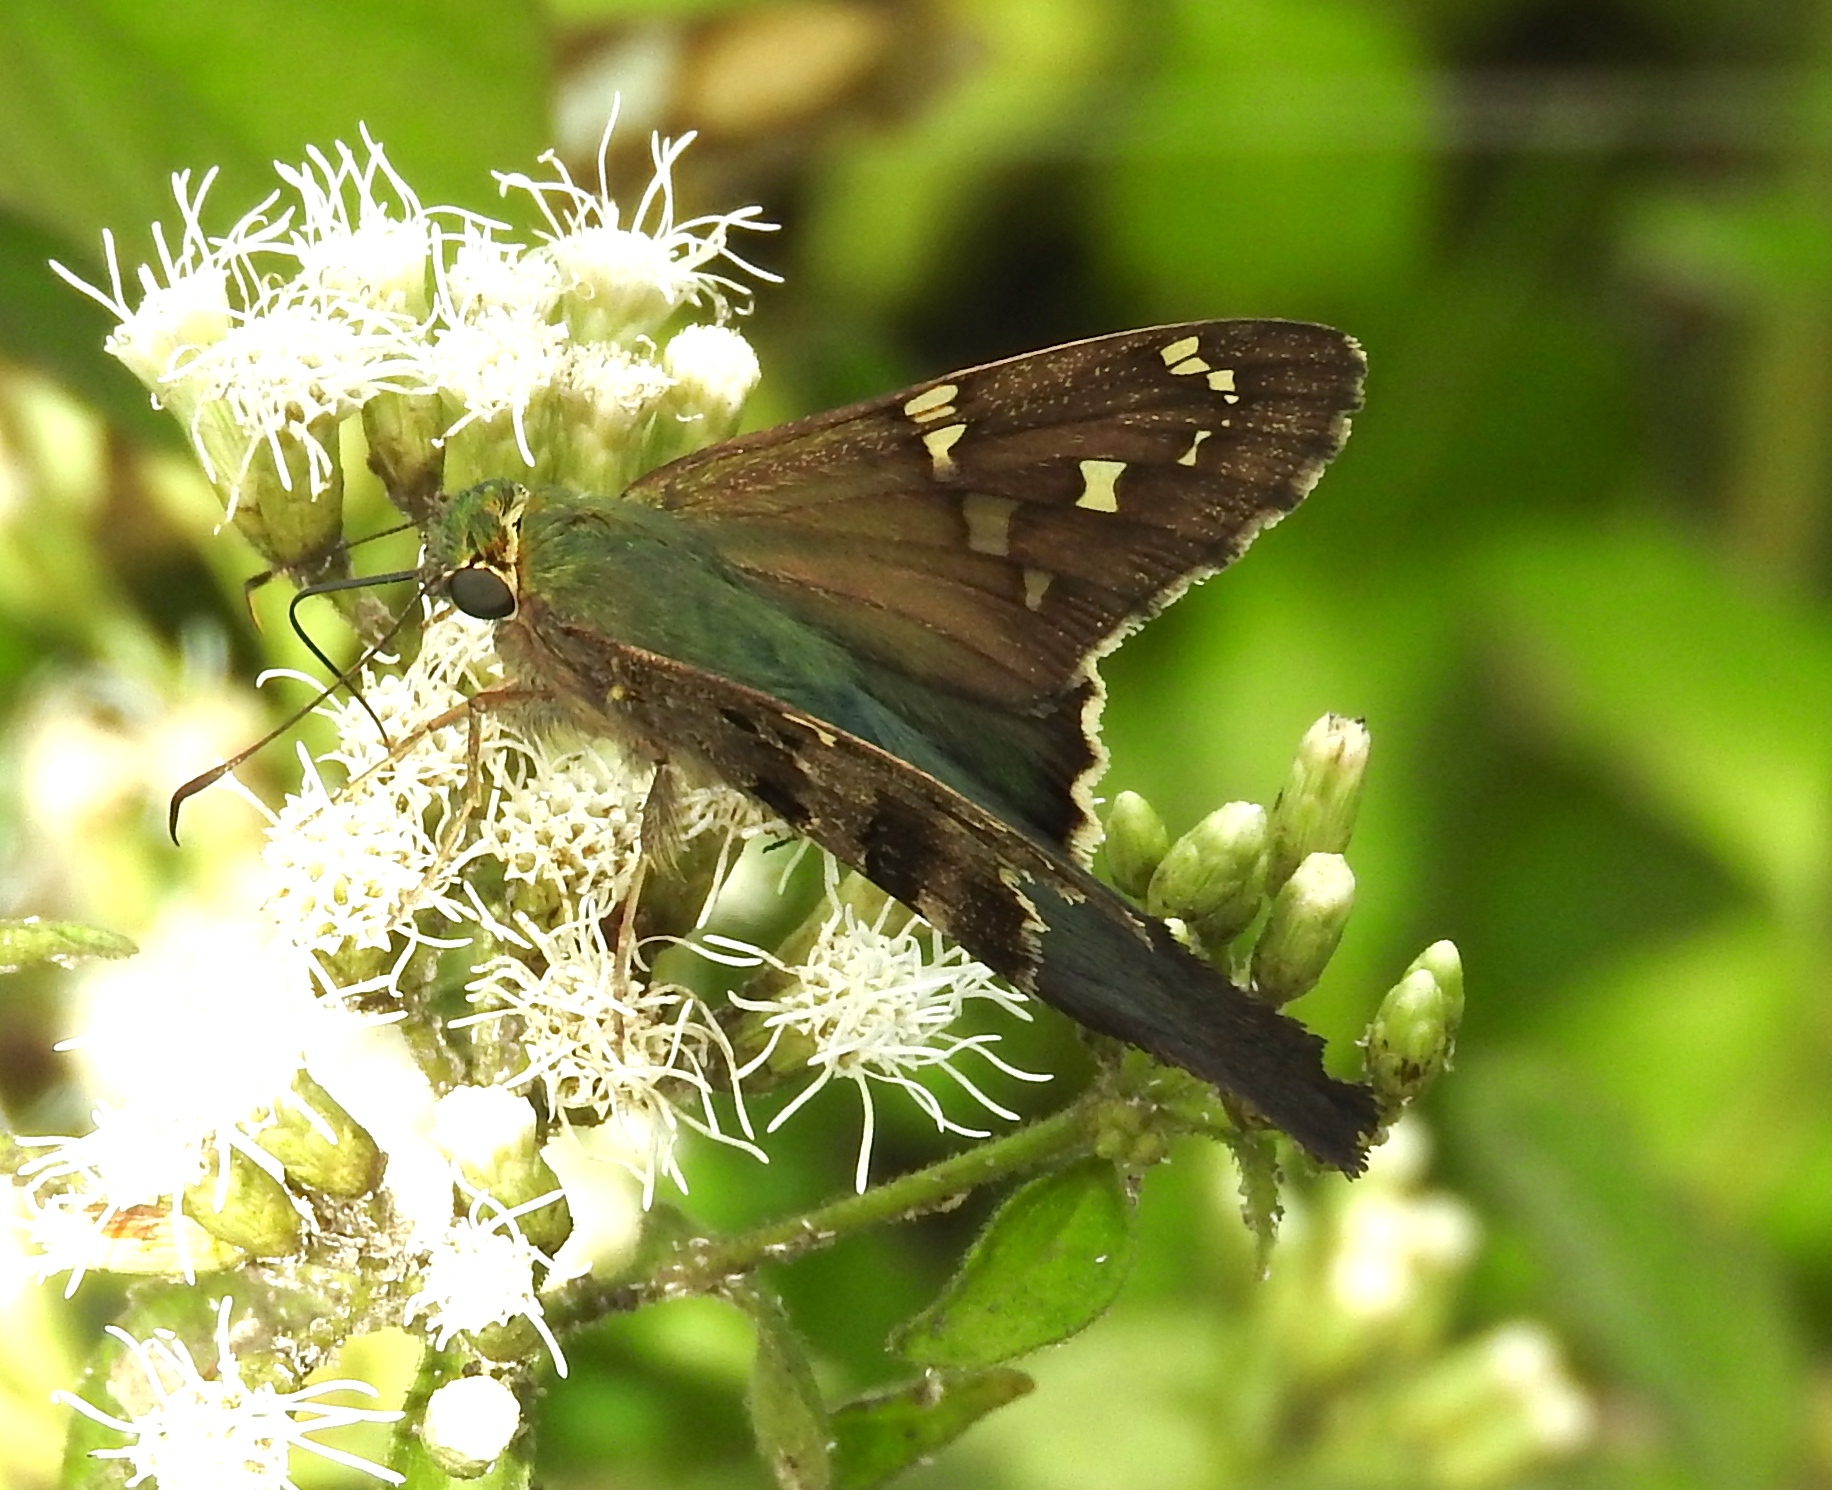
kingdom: Animalia
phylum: Arthropoda
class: Insecta
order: Lepidoptera
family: Hesperiidae
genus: Urbanus
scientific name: Urbanus proteus
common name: Long-tailed skipper
